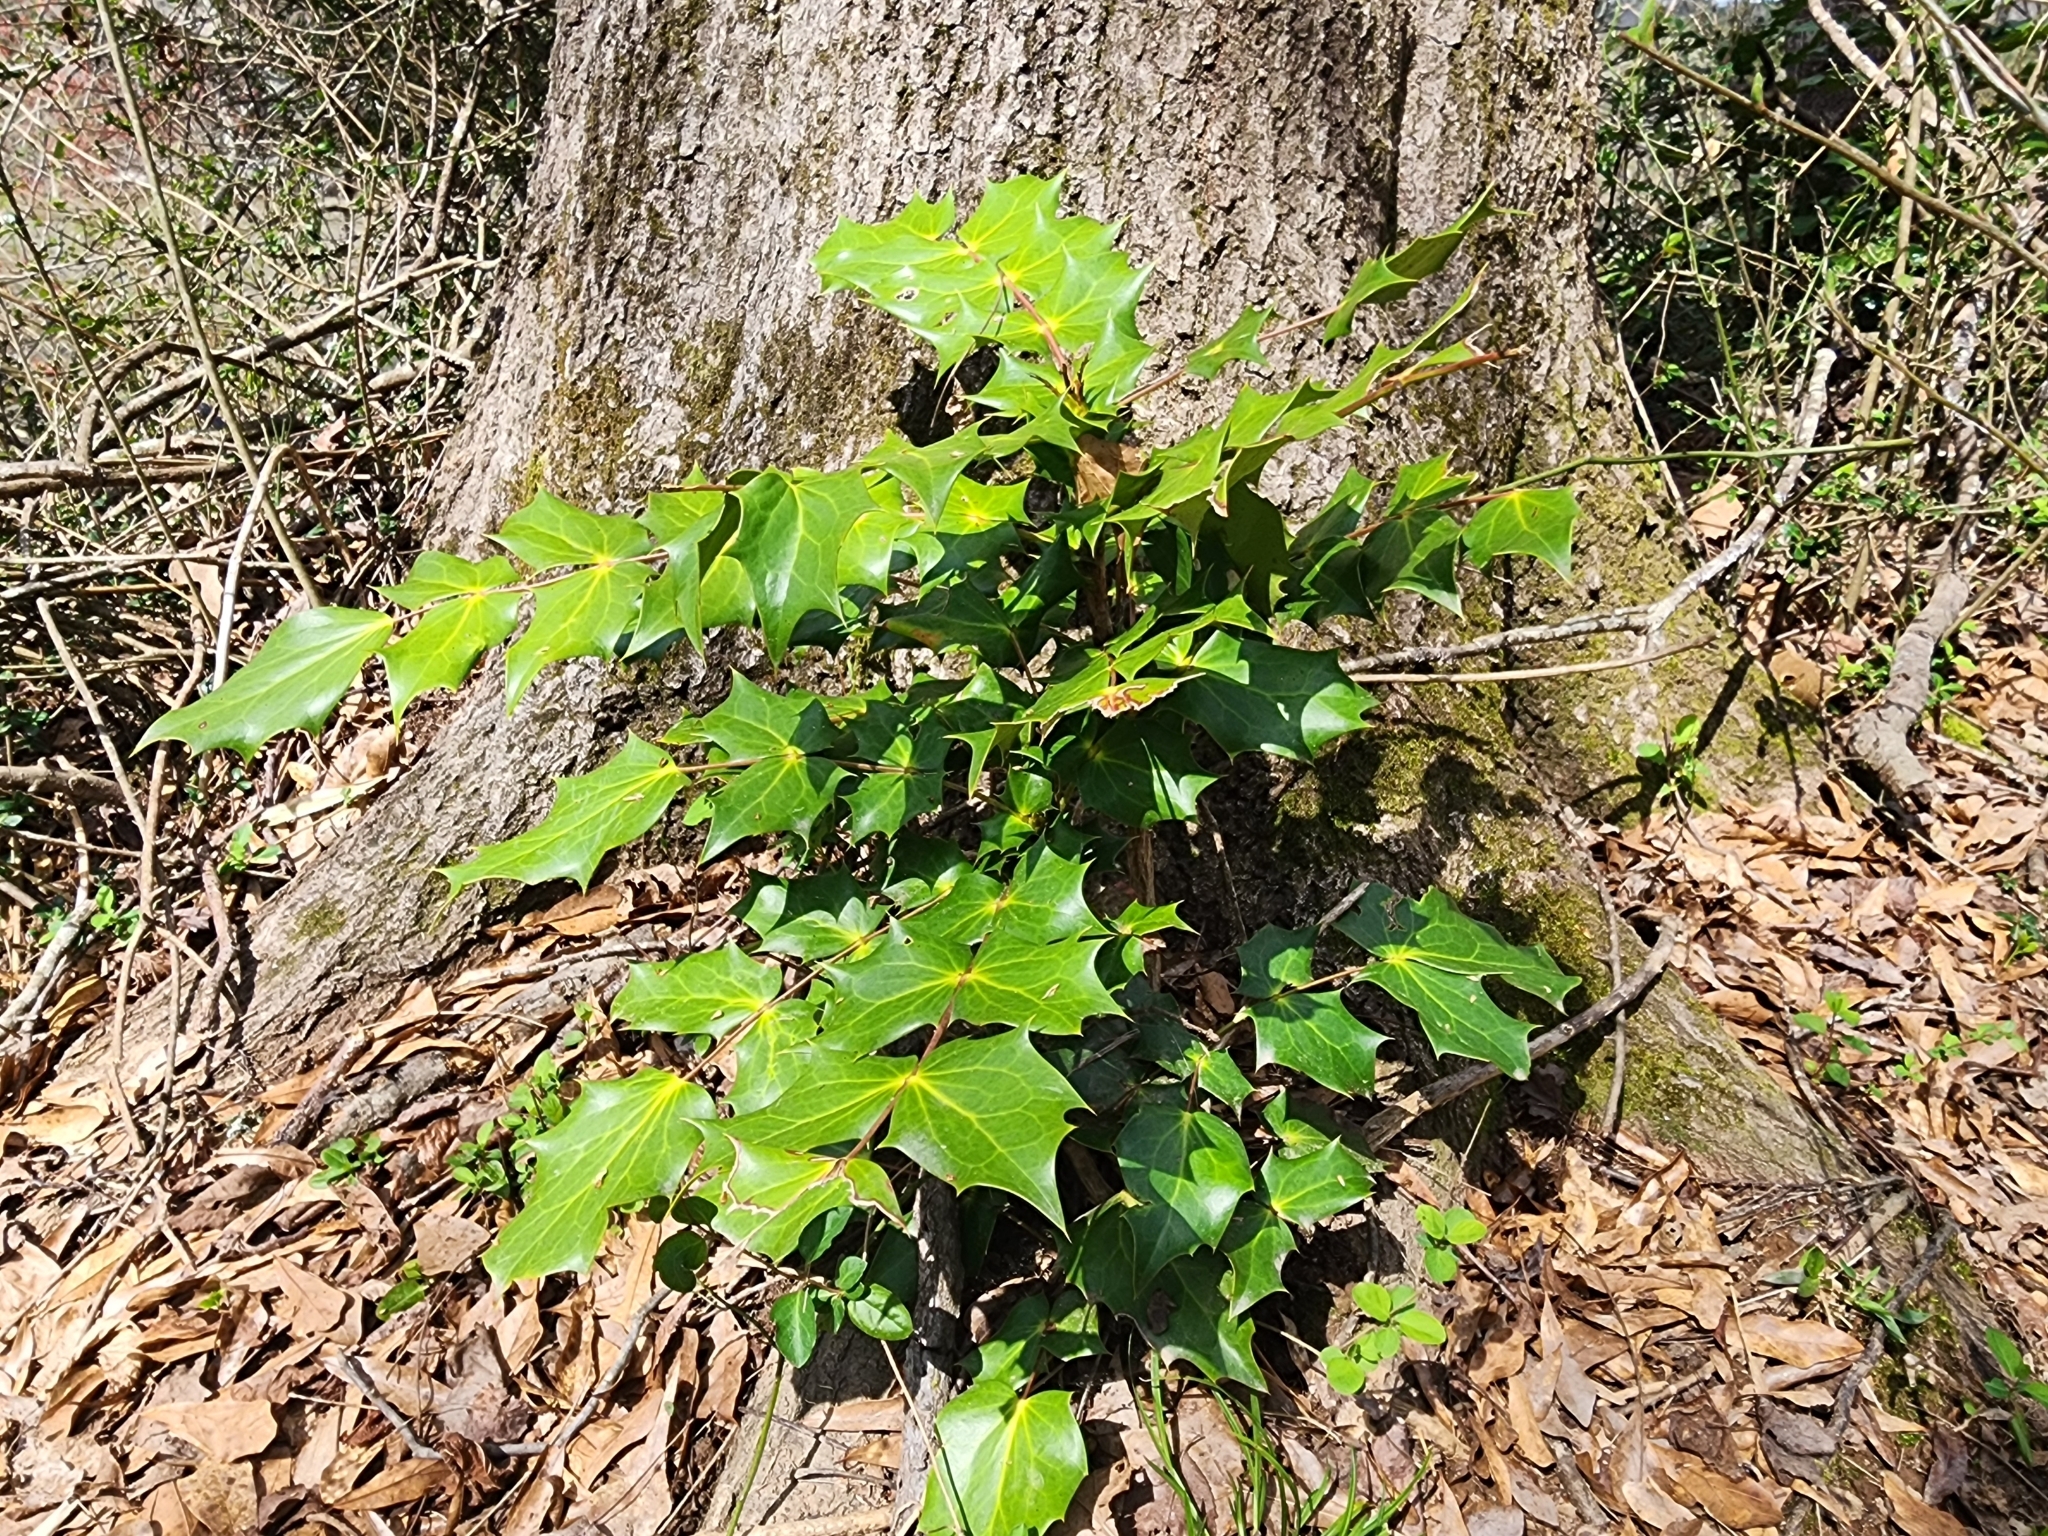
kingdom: Plantae
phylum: Tracheophyta
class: Magnoliopsida
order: Ranunculales
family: Berberidaceae
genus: Mahonia
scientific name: Mahonia bealei
